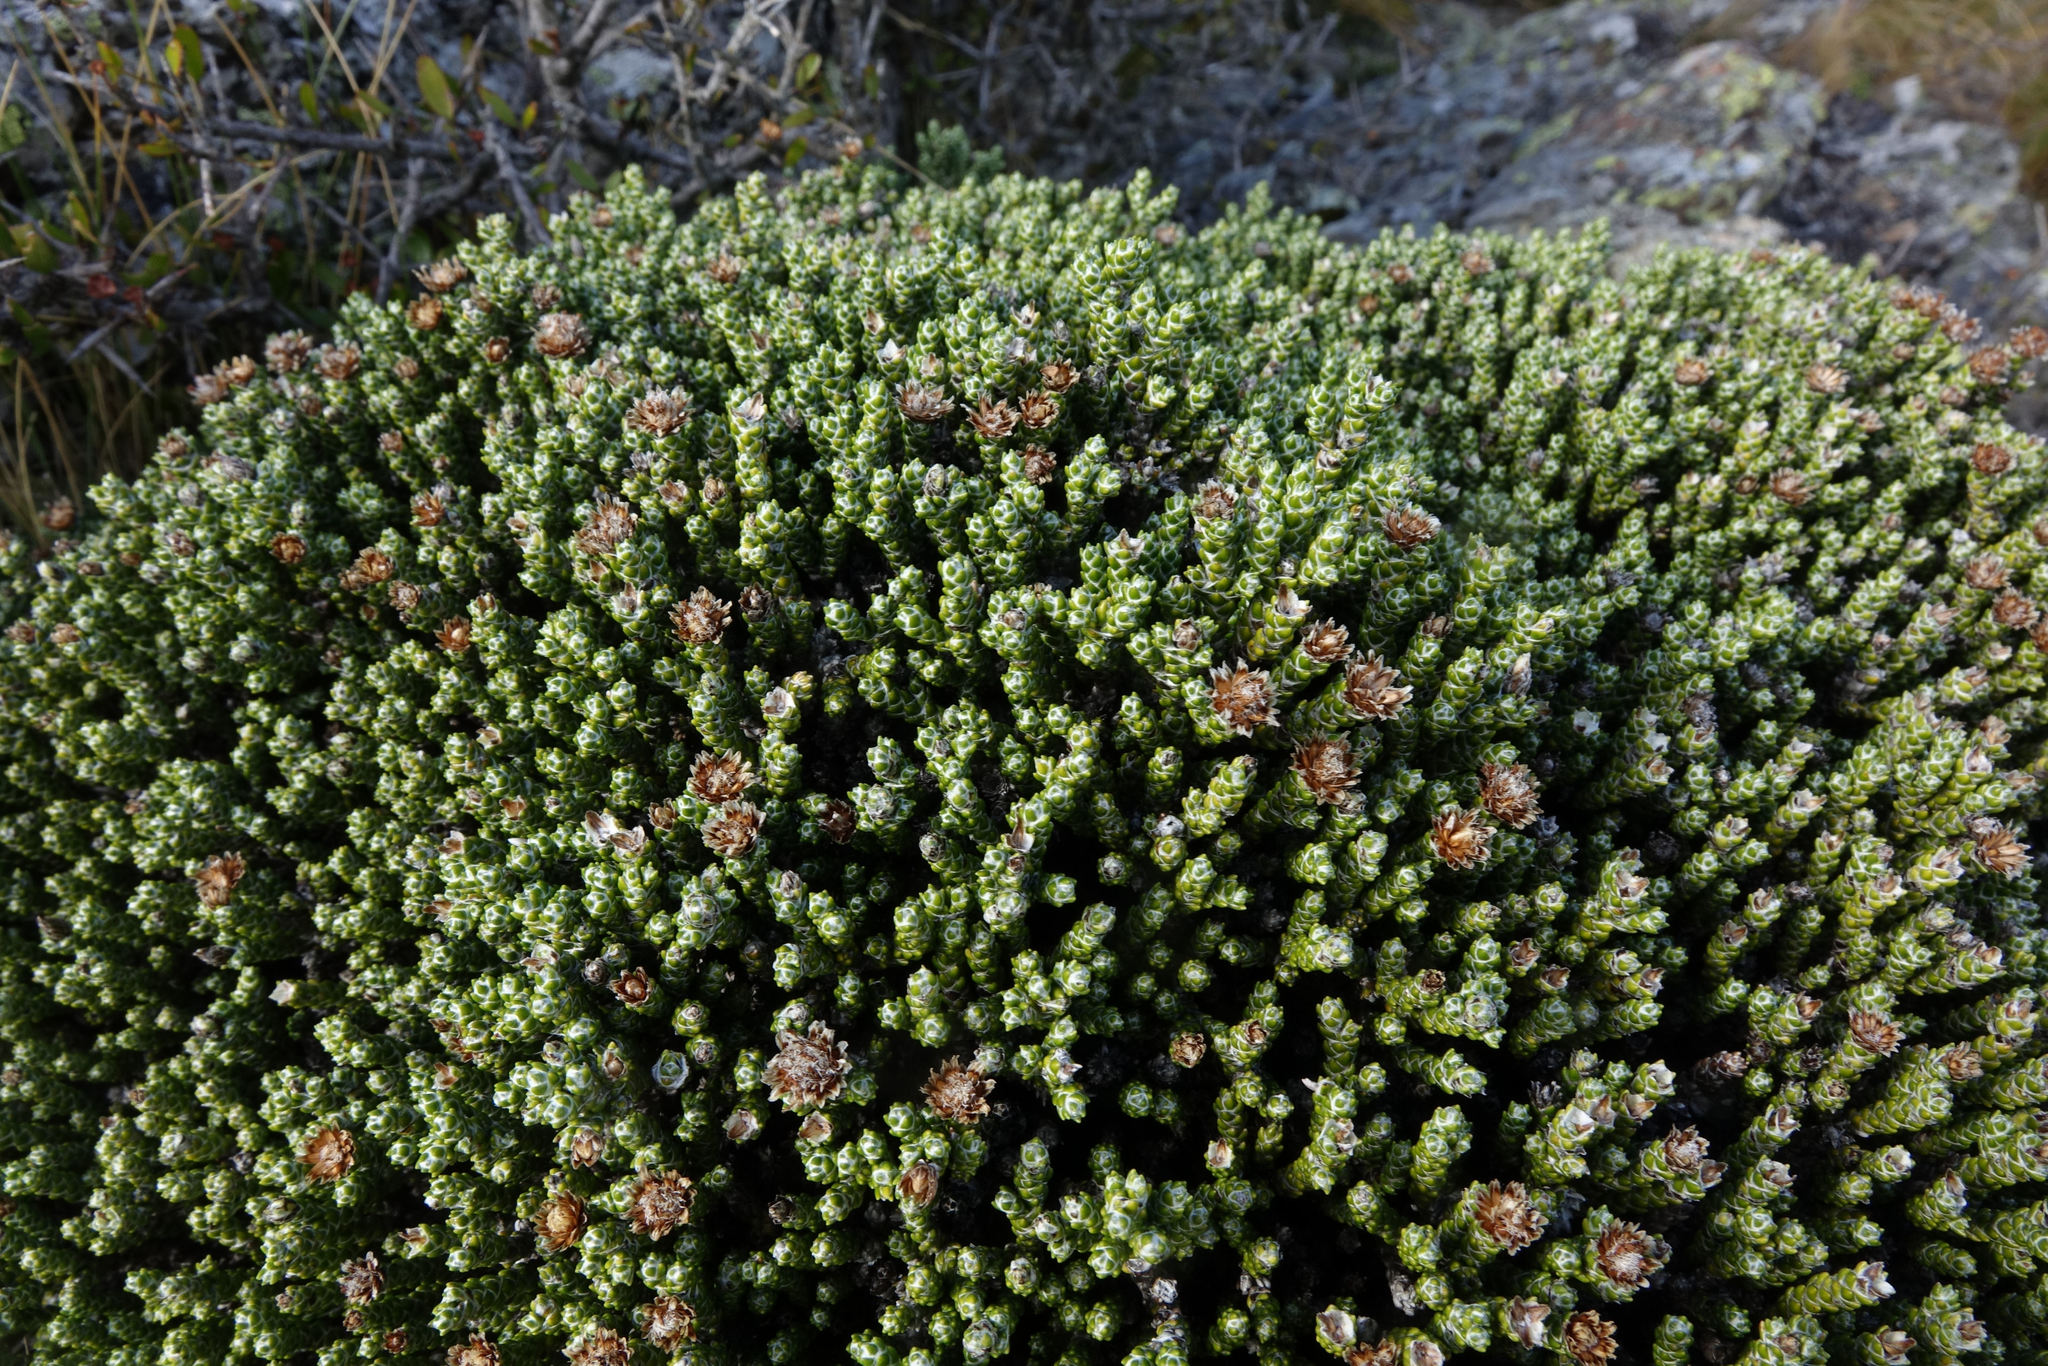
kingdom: Plantae
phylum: Tracheophyta
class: Magnoliopsida
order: Asterales
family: Asteraceae
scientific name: Asteraceae
